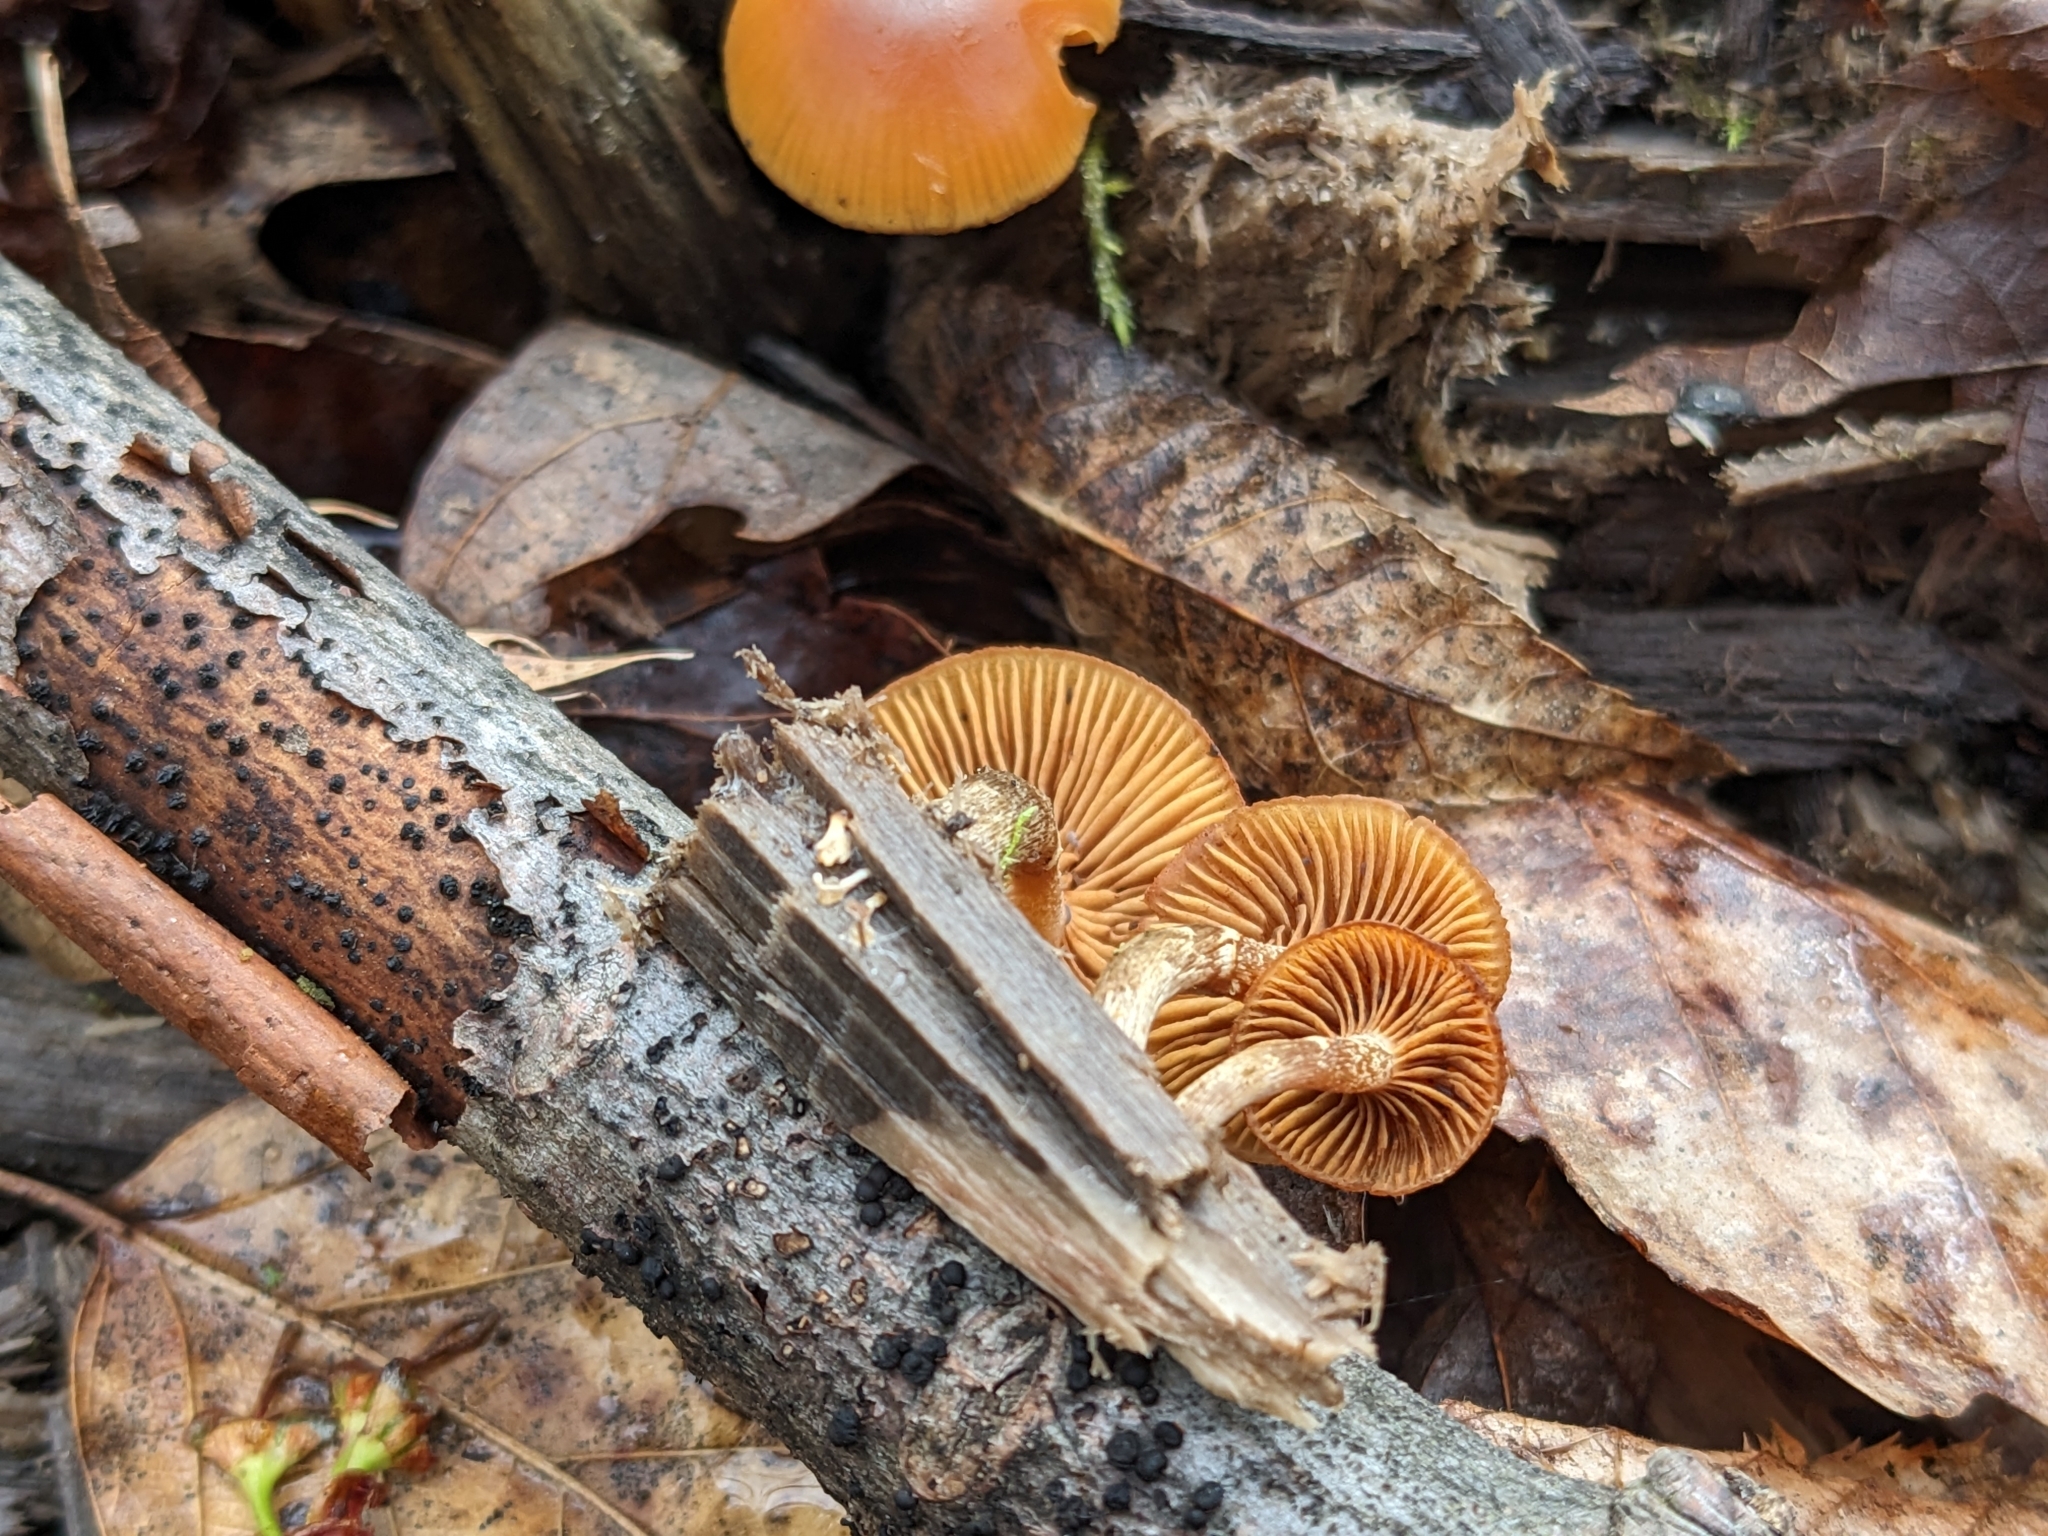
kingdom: Fungi
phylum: Basidiomycota
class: Agaricomycetes
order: Agaricales
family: Hymenogastraceae
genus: Galerina
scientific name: Galerina marginata
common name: Funeral bell
